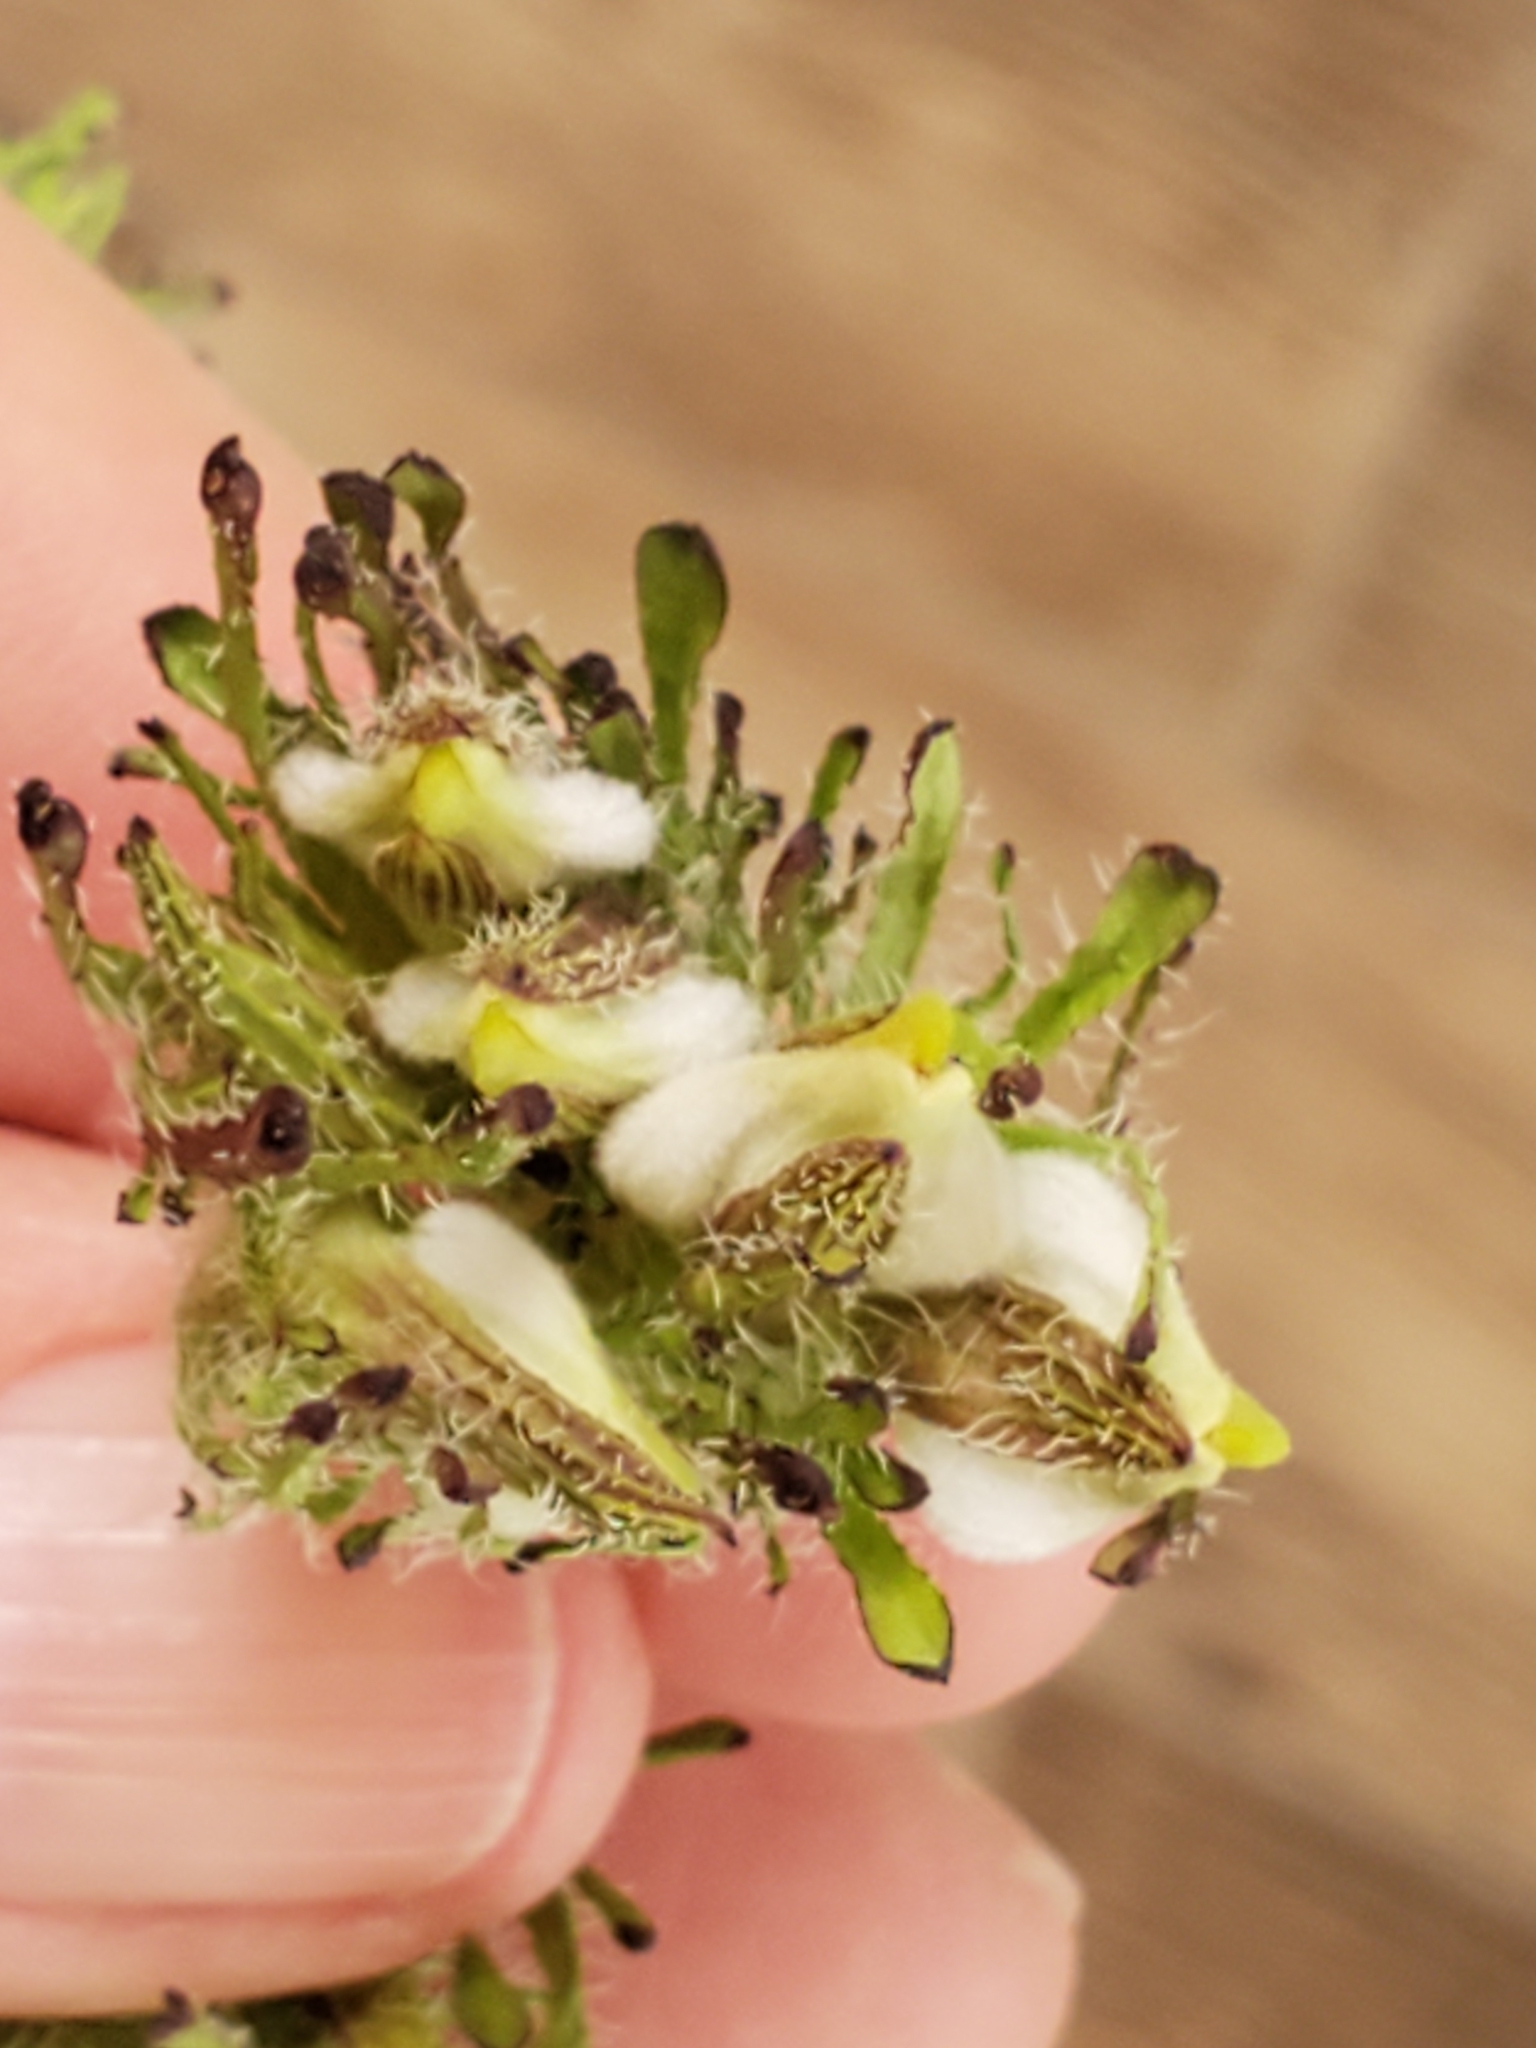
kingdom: Plantae
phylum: Tracheophyta
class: Magnoliopsida
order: Lamiales
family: Orobanchaceae
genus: Cordylanthus
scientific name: Cordylanthus rigidus
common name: Stiff-branch bird's-beak
